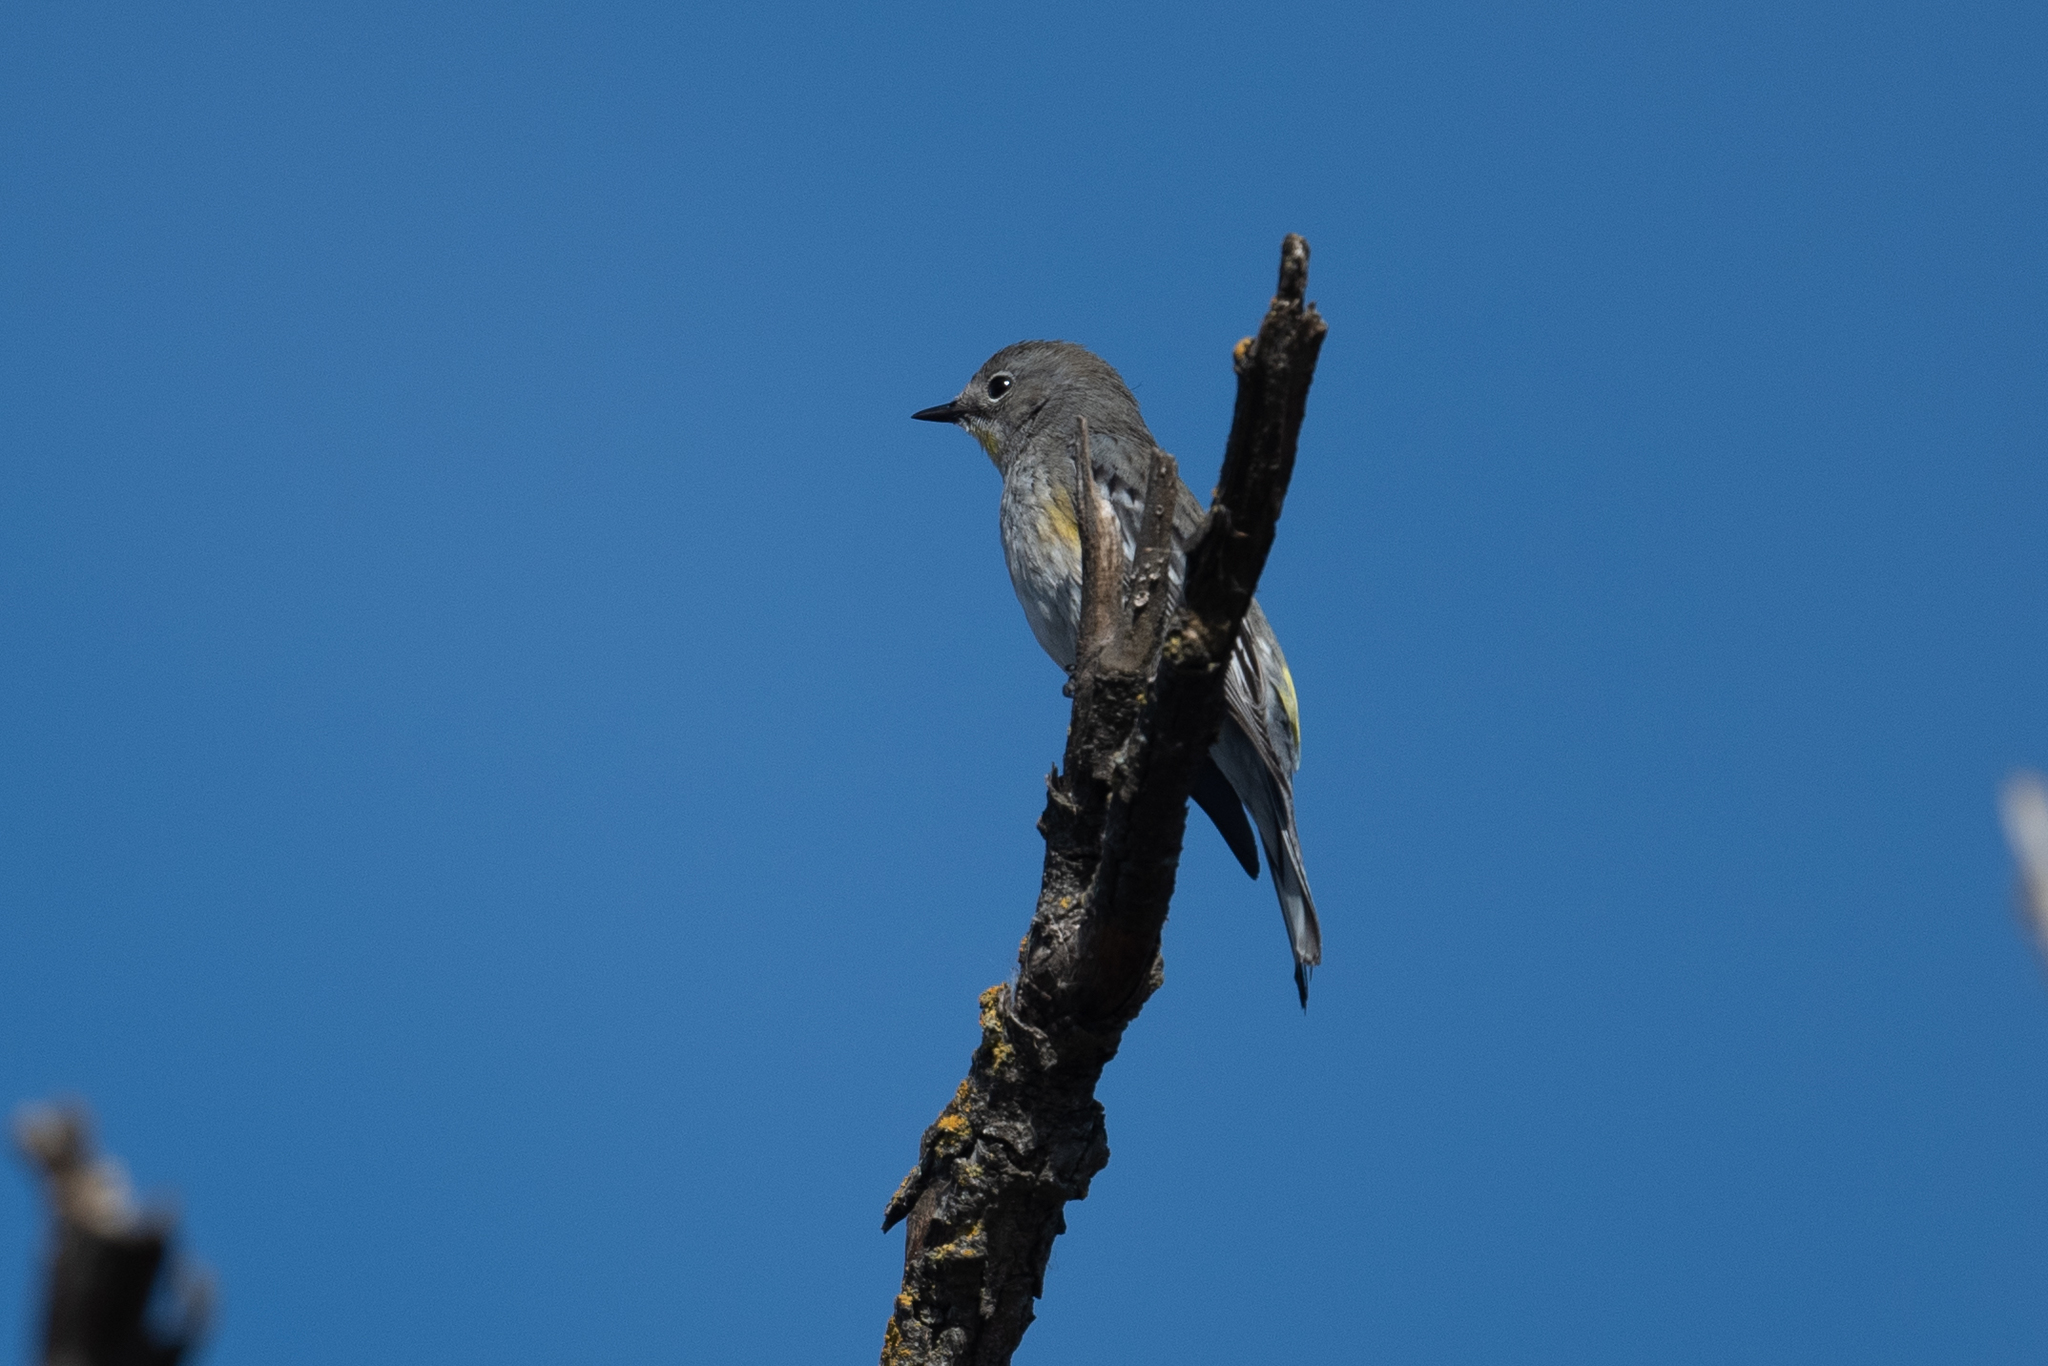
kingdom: Animalia
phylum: Chordata
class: Aves
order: Passeriformes
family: Parulidae
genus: Setophaga
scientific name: Setophaga coronata
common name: Myrtle warbler
